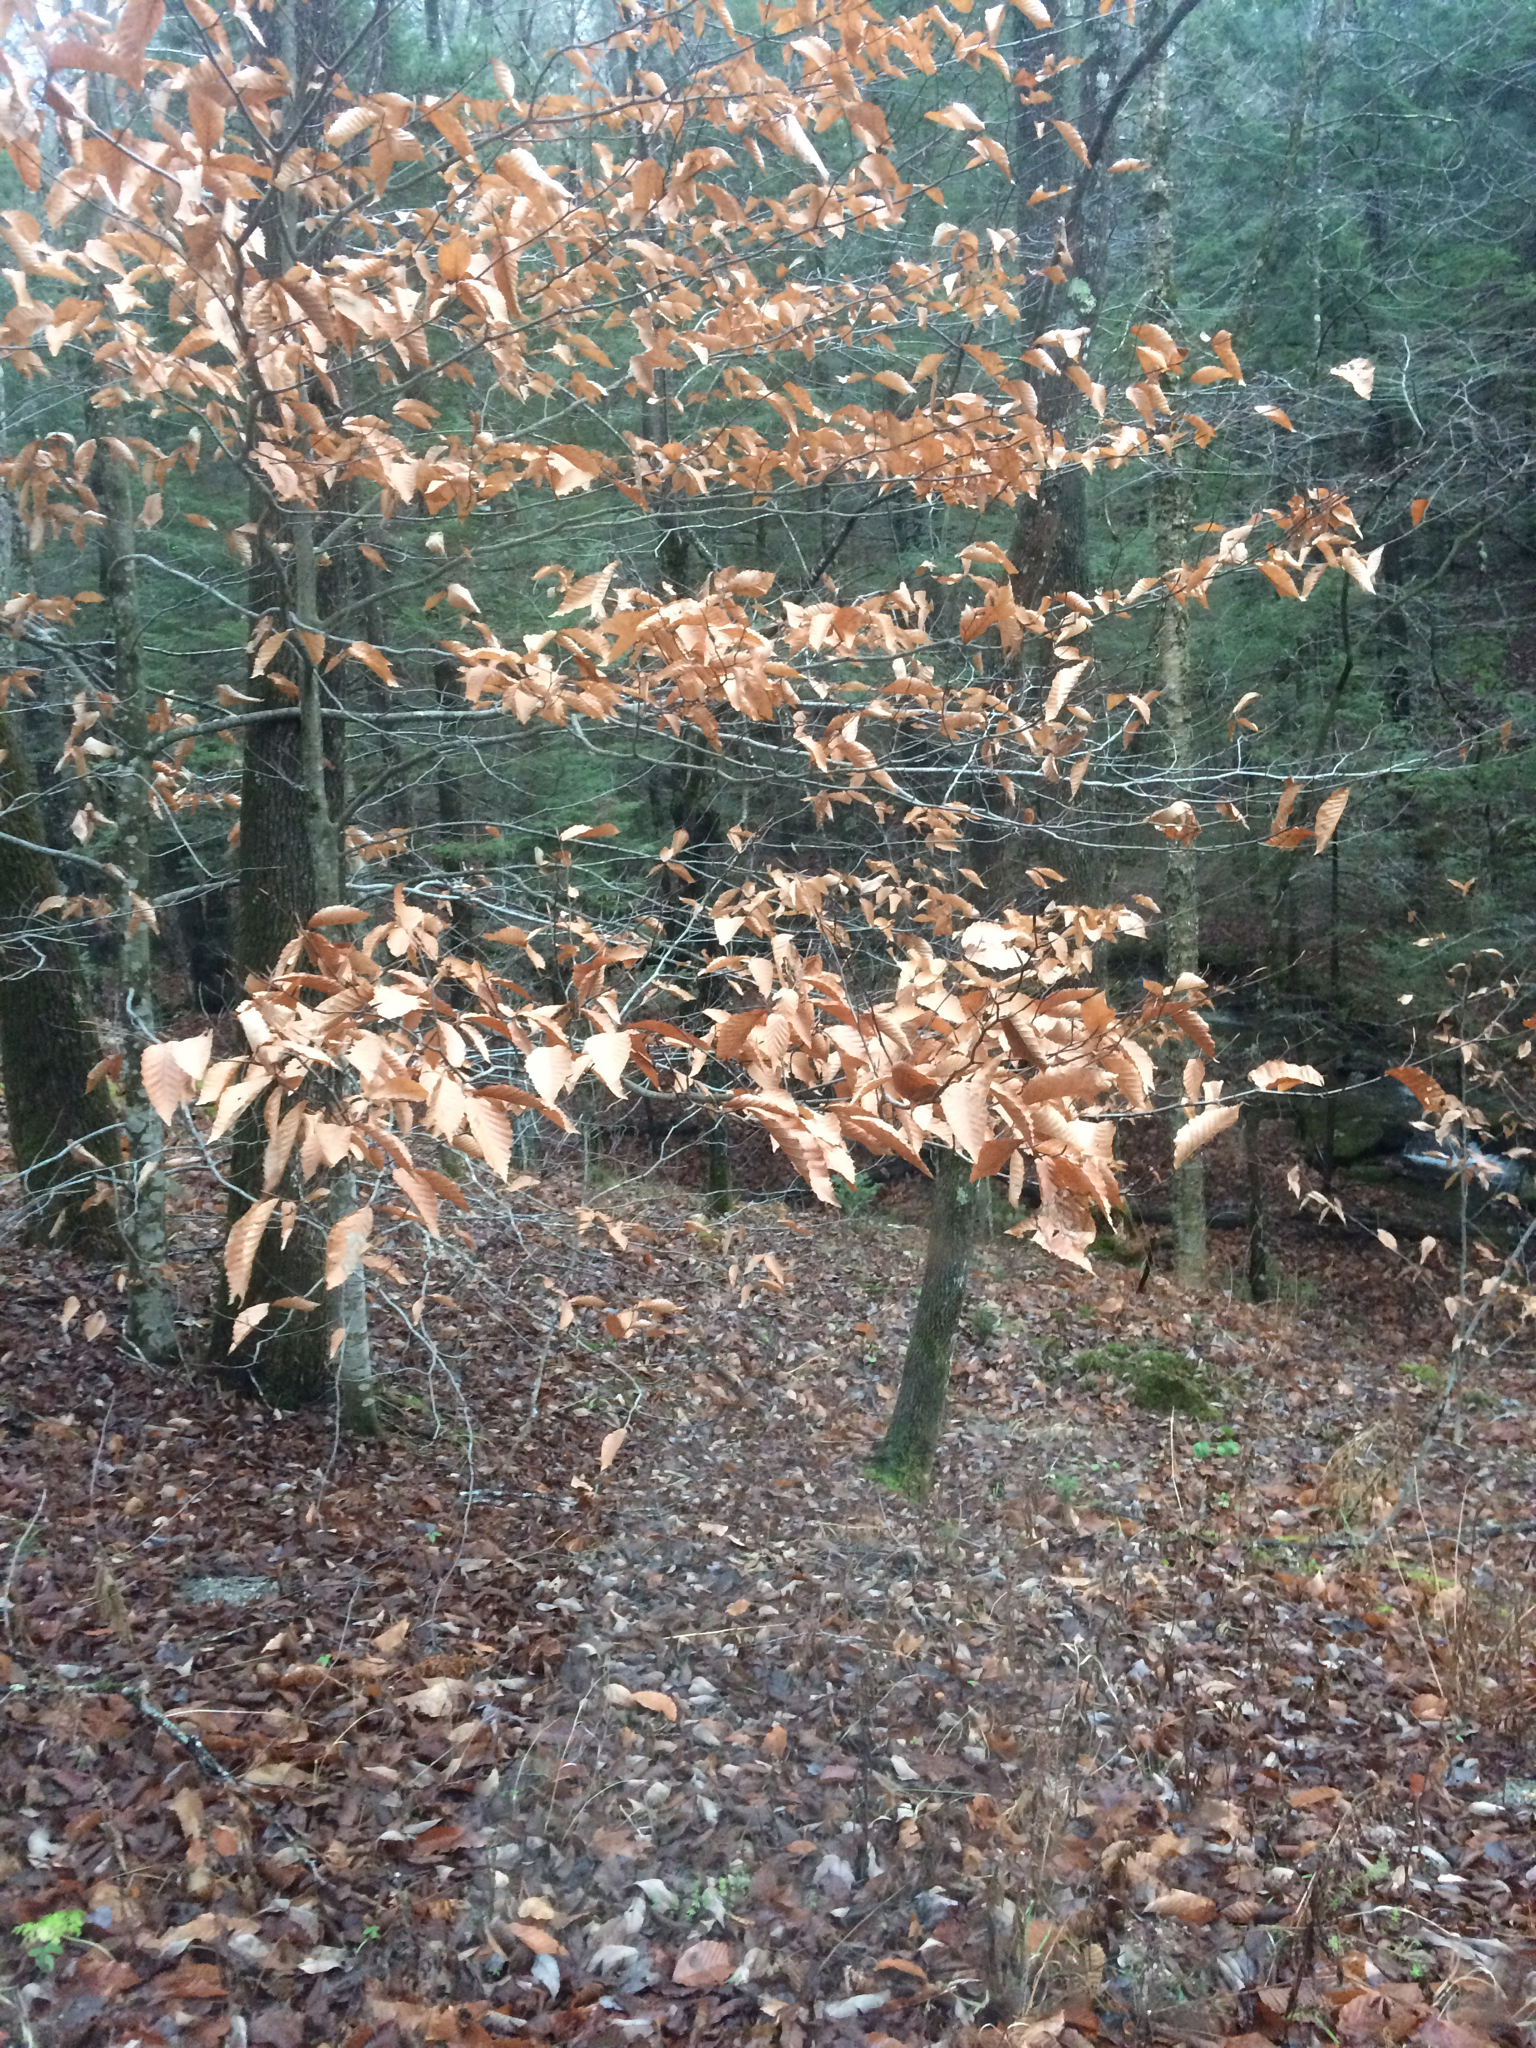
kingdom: Plantae
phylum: Tracheophyta
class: Magnoliopsida
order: Fagales
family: Fagaceae
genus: Fagus
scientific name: Fagus grandifolia
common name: American beech
